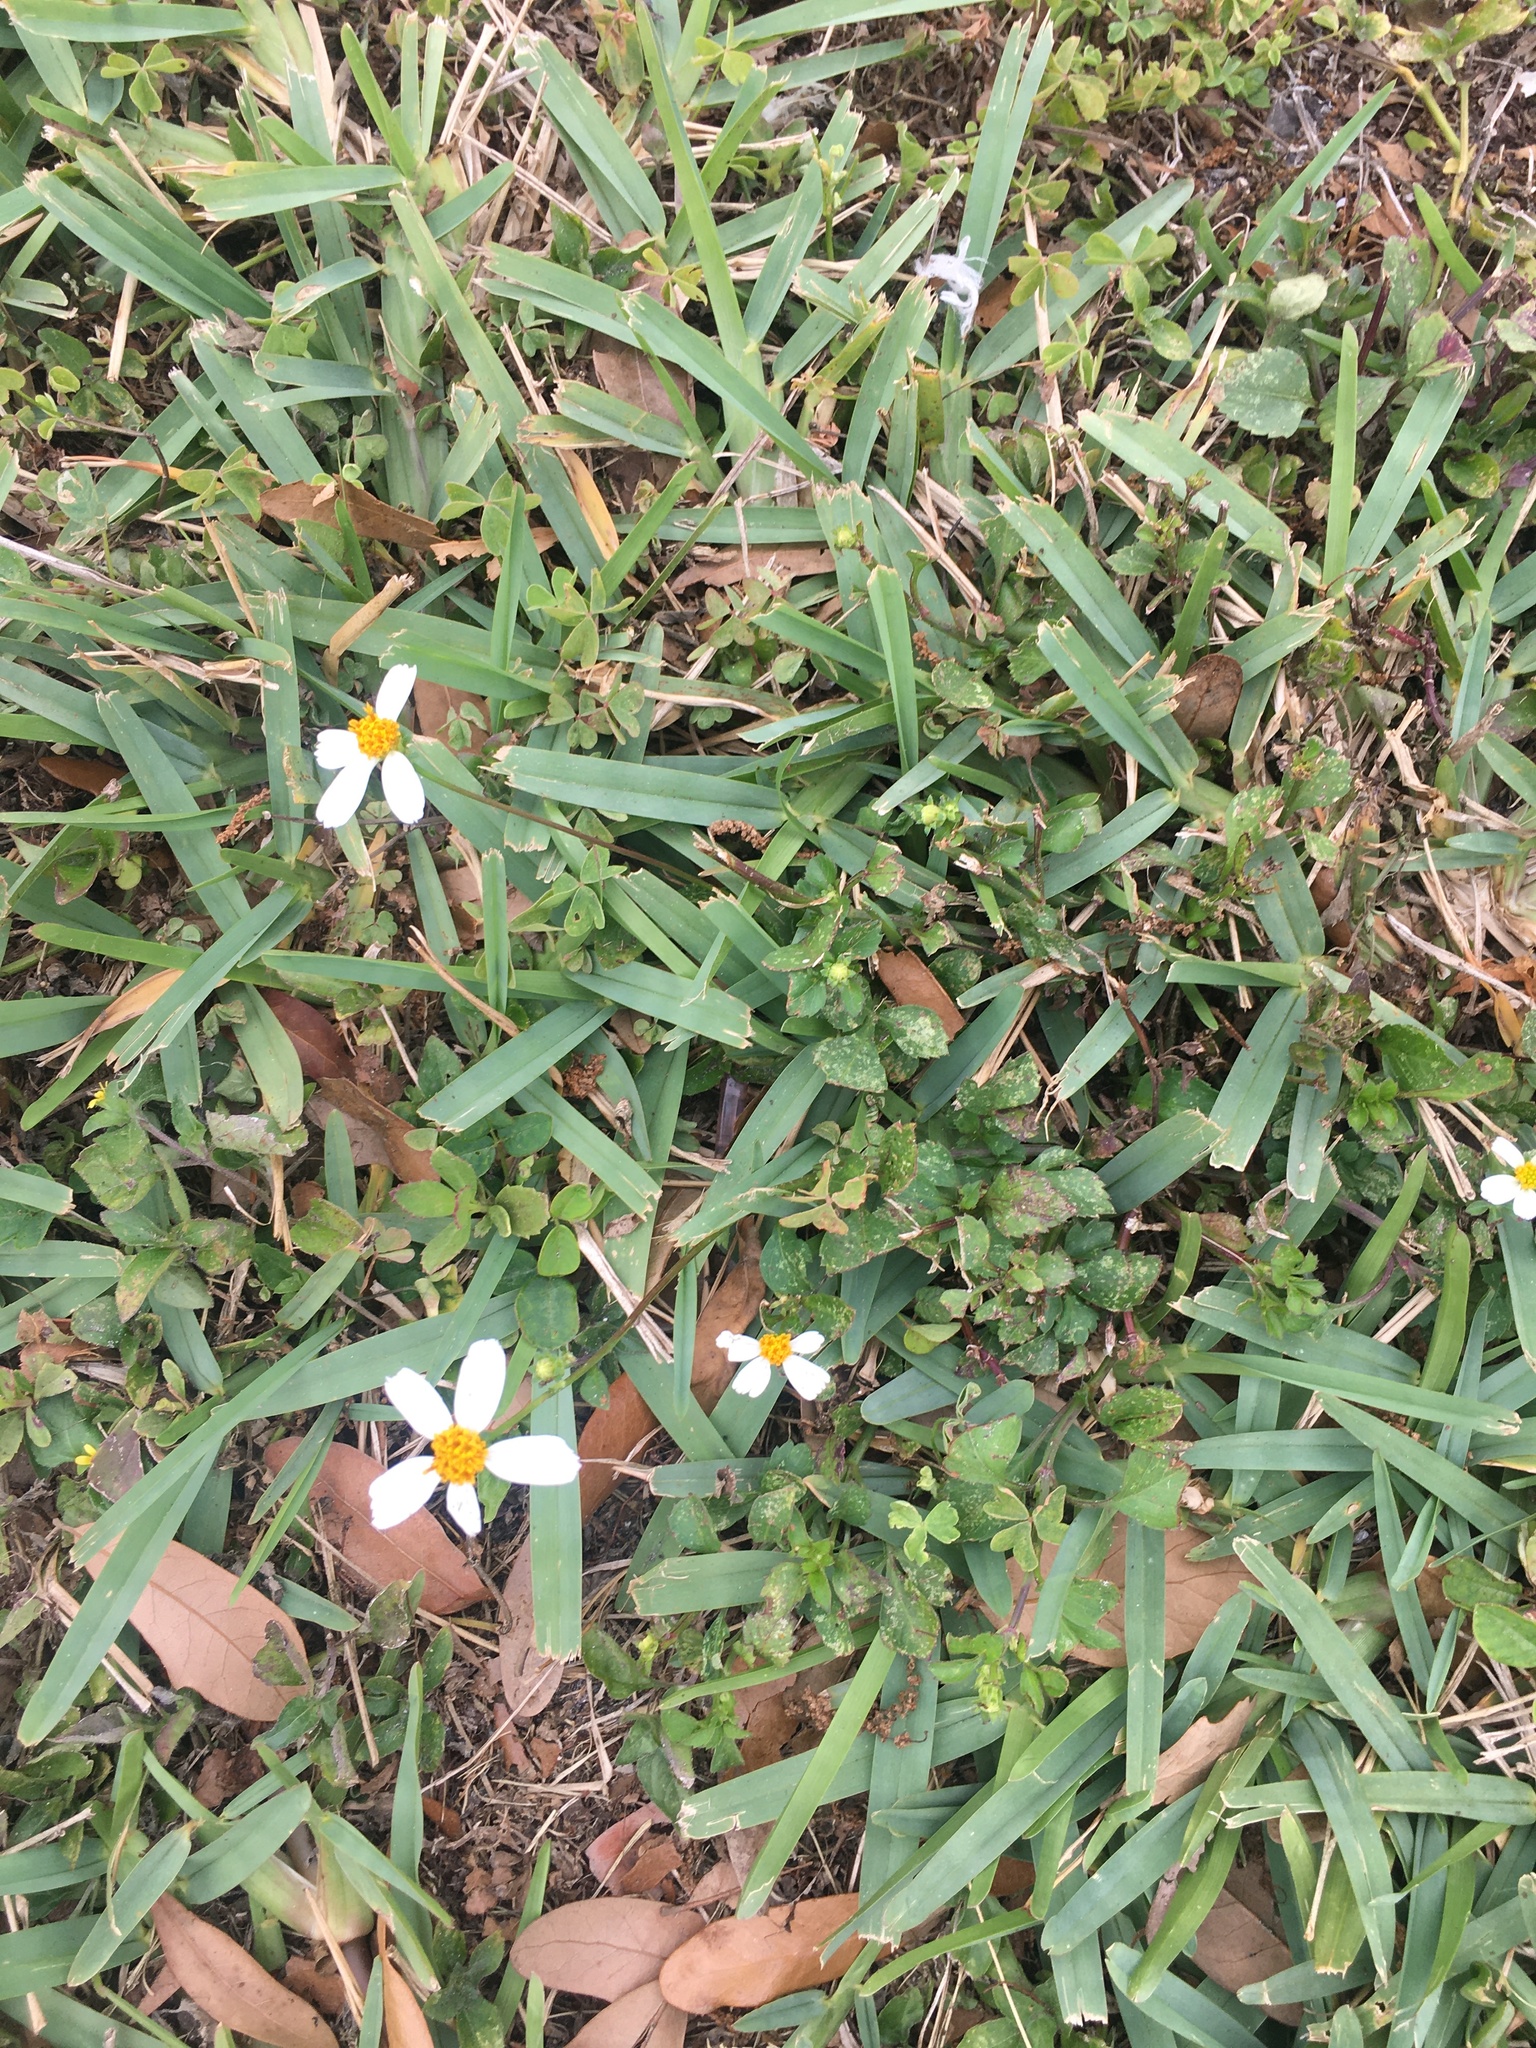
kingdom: Plantae
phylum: Tracheophyta
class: Magnoliopsida
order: Asterales
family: Asteraceae
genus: Bidens
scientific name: Bidens alba
